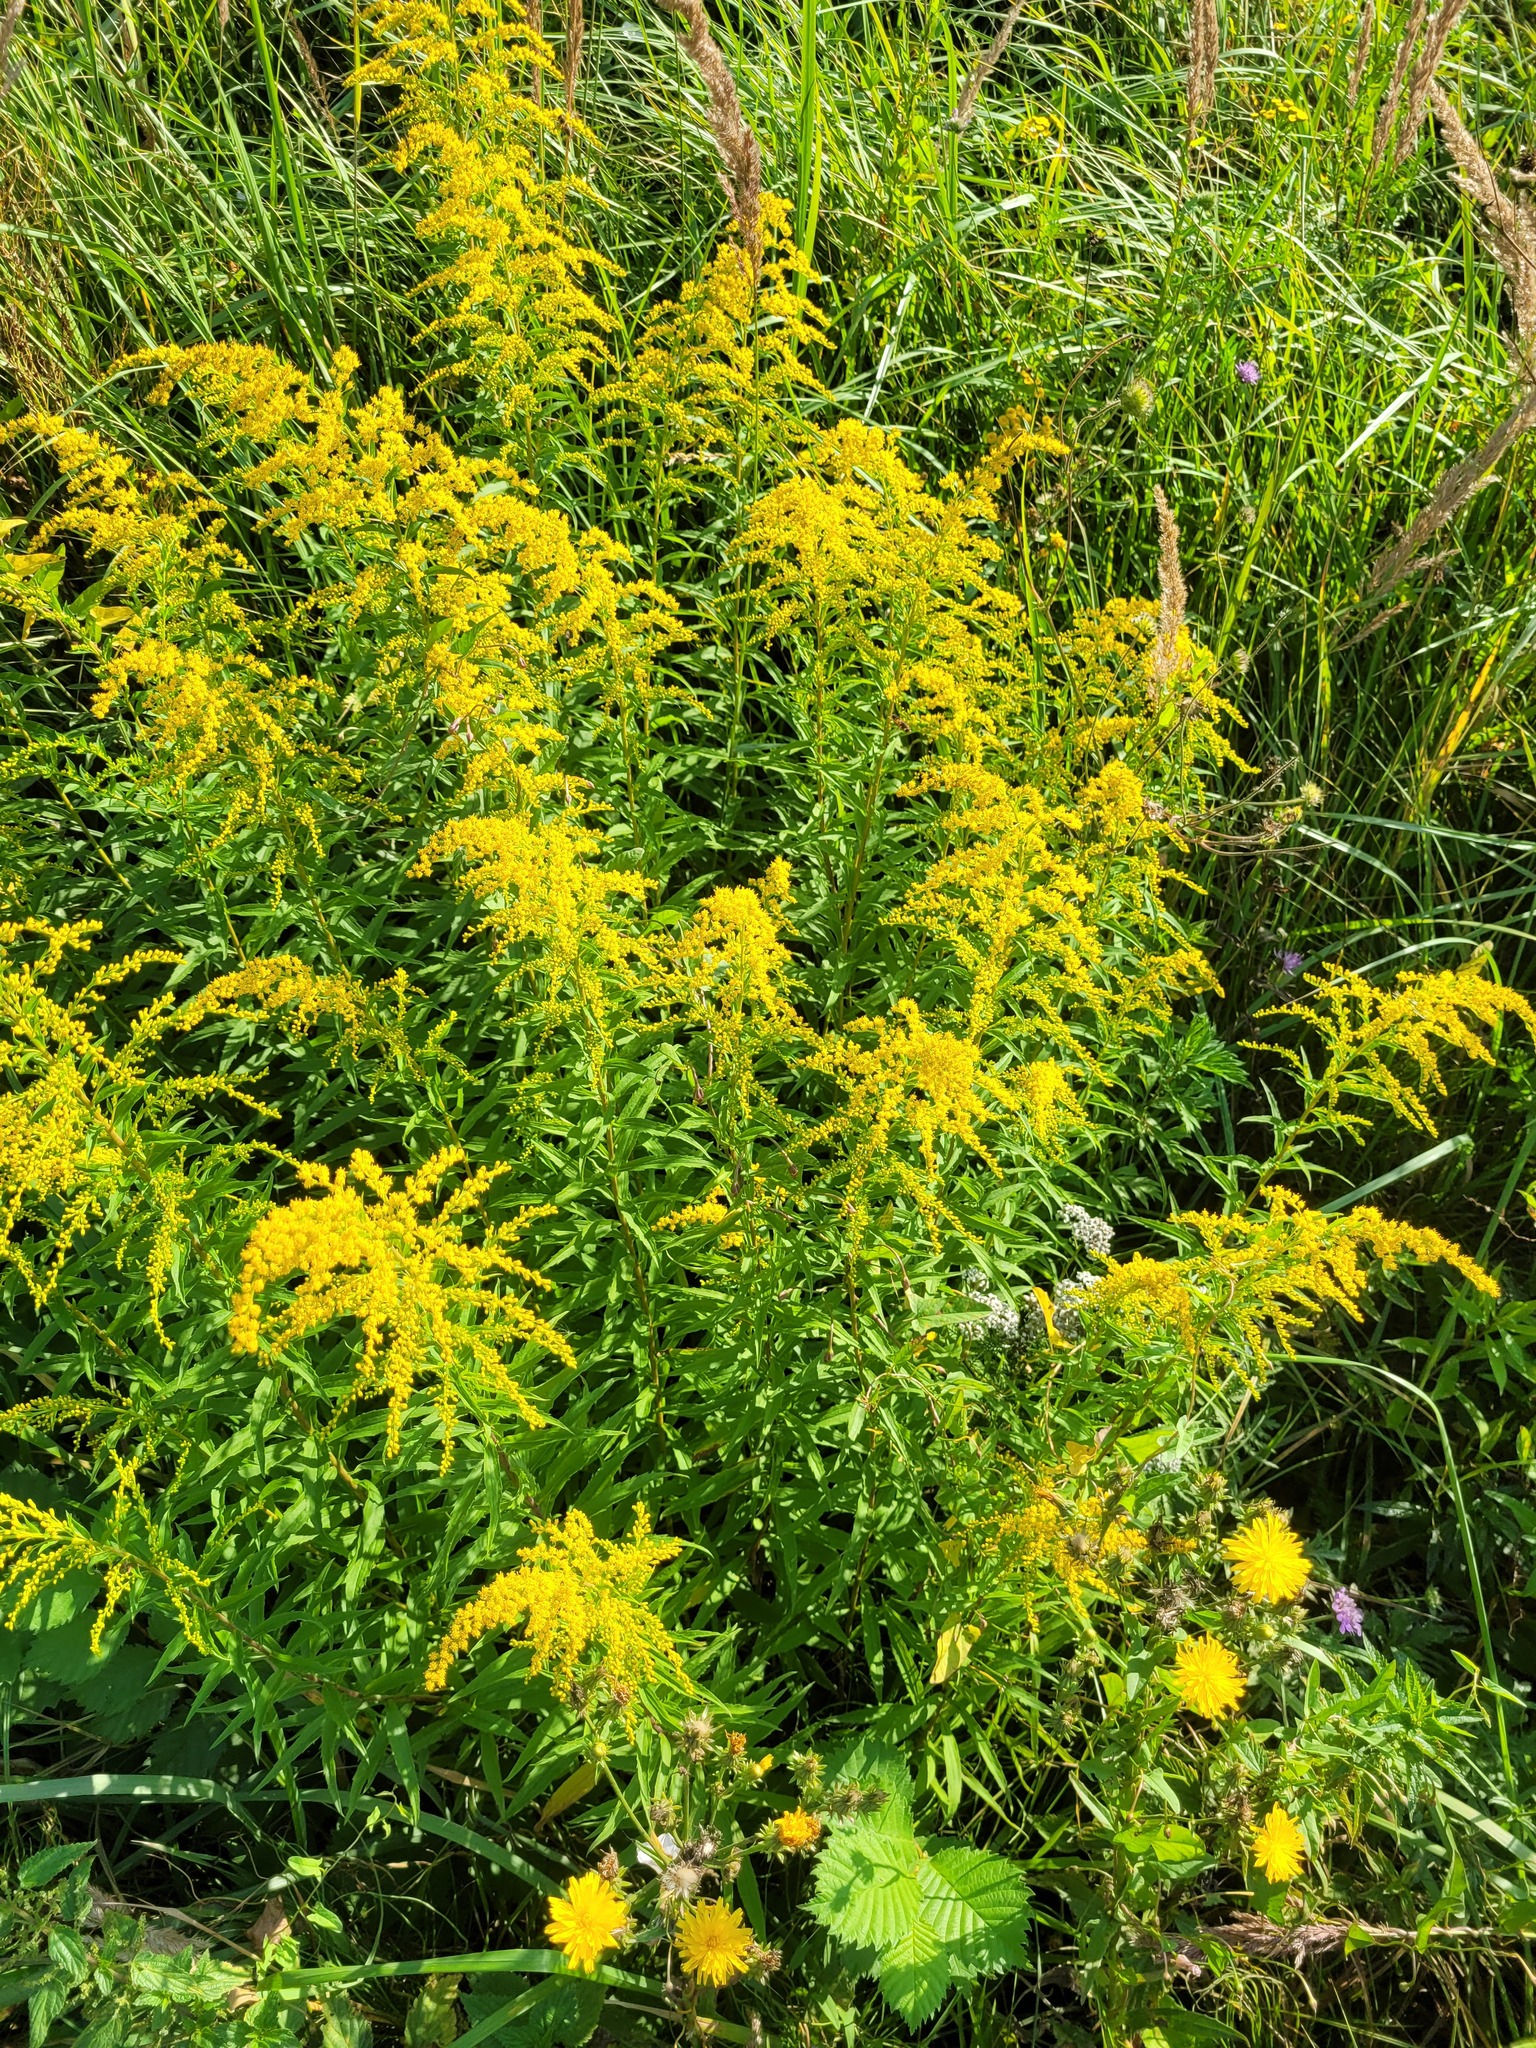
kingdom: Plantae
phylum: Tracheophyta
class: Magnoliopsida
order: Asterales
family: Asteraceae
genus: Solidago
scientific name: Solidago canadensis
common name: Canada goldenrod
